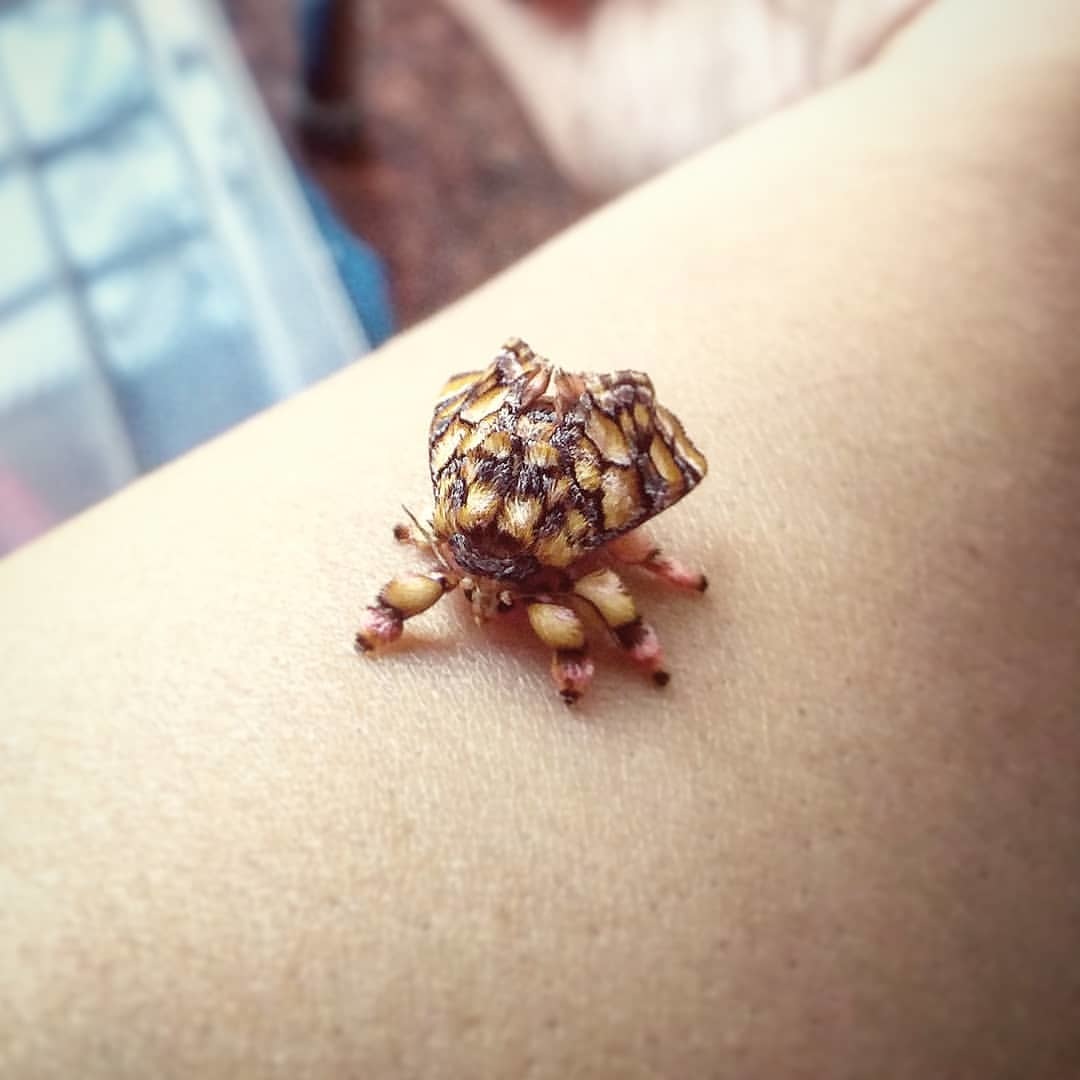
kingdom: Animalia
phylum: Arthropoda
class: Insecta
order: Lepidoptera
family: Limacodidae
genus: Phobetron
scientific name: Phobetron hipparchia
